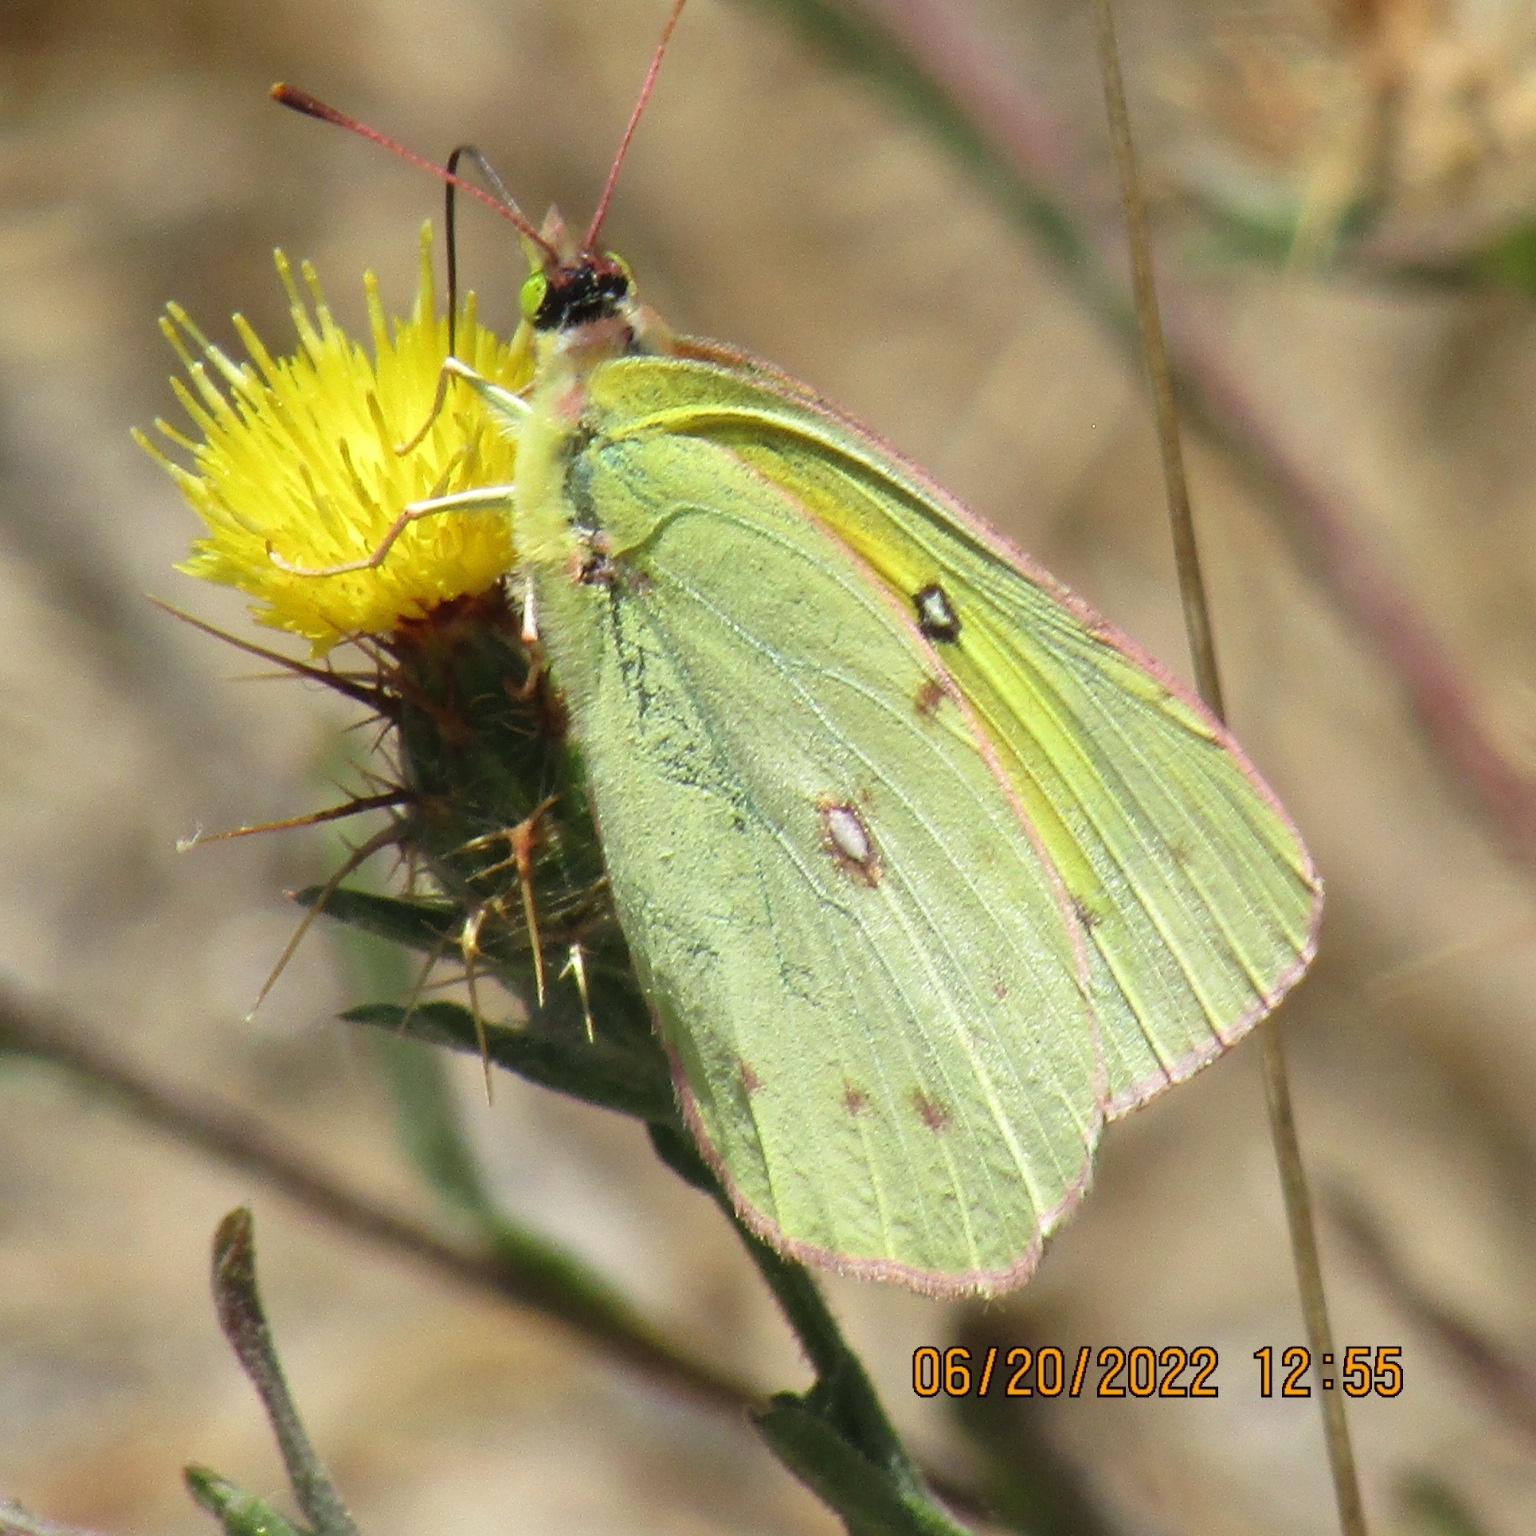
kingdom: Animalia
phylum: Arthropoda
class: Insecta
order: Lepidoptera
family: Pieridae
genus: Colias
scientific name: Colias eurytheme
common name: Alfalfa butterfly
